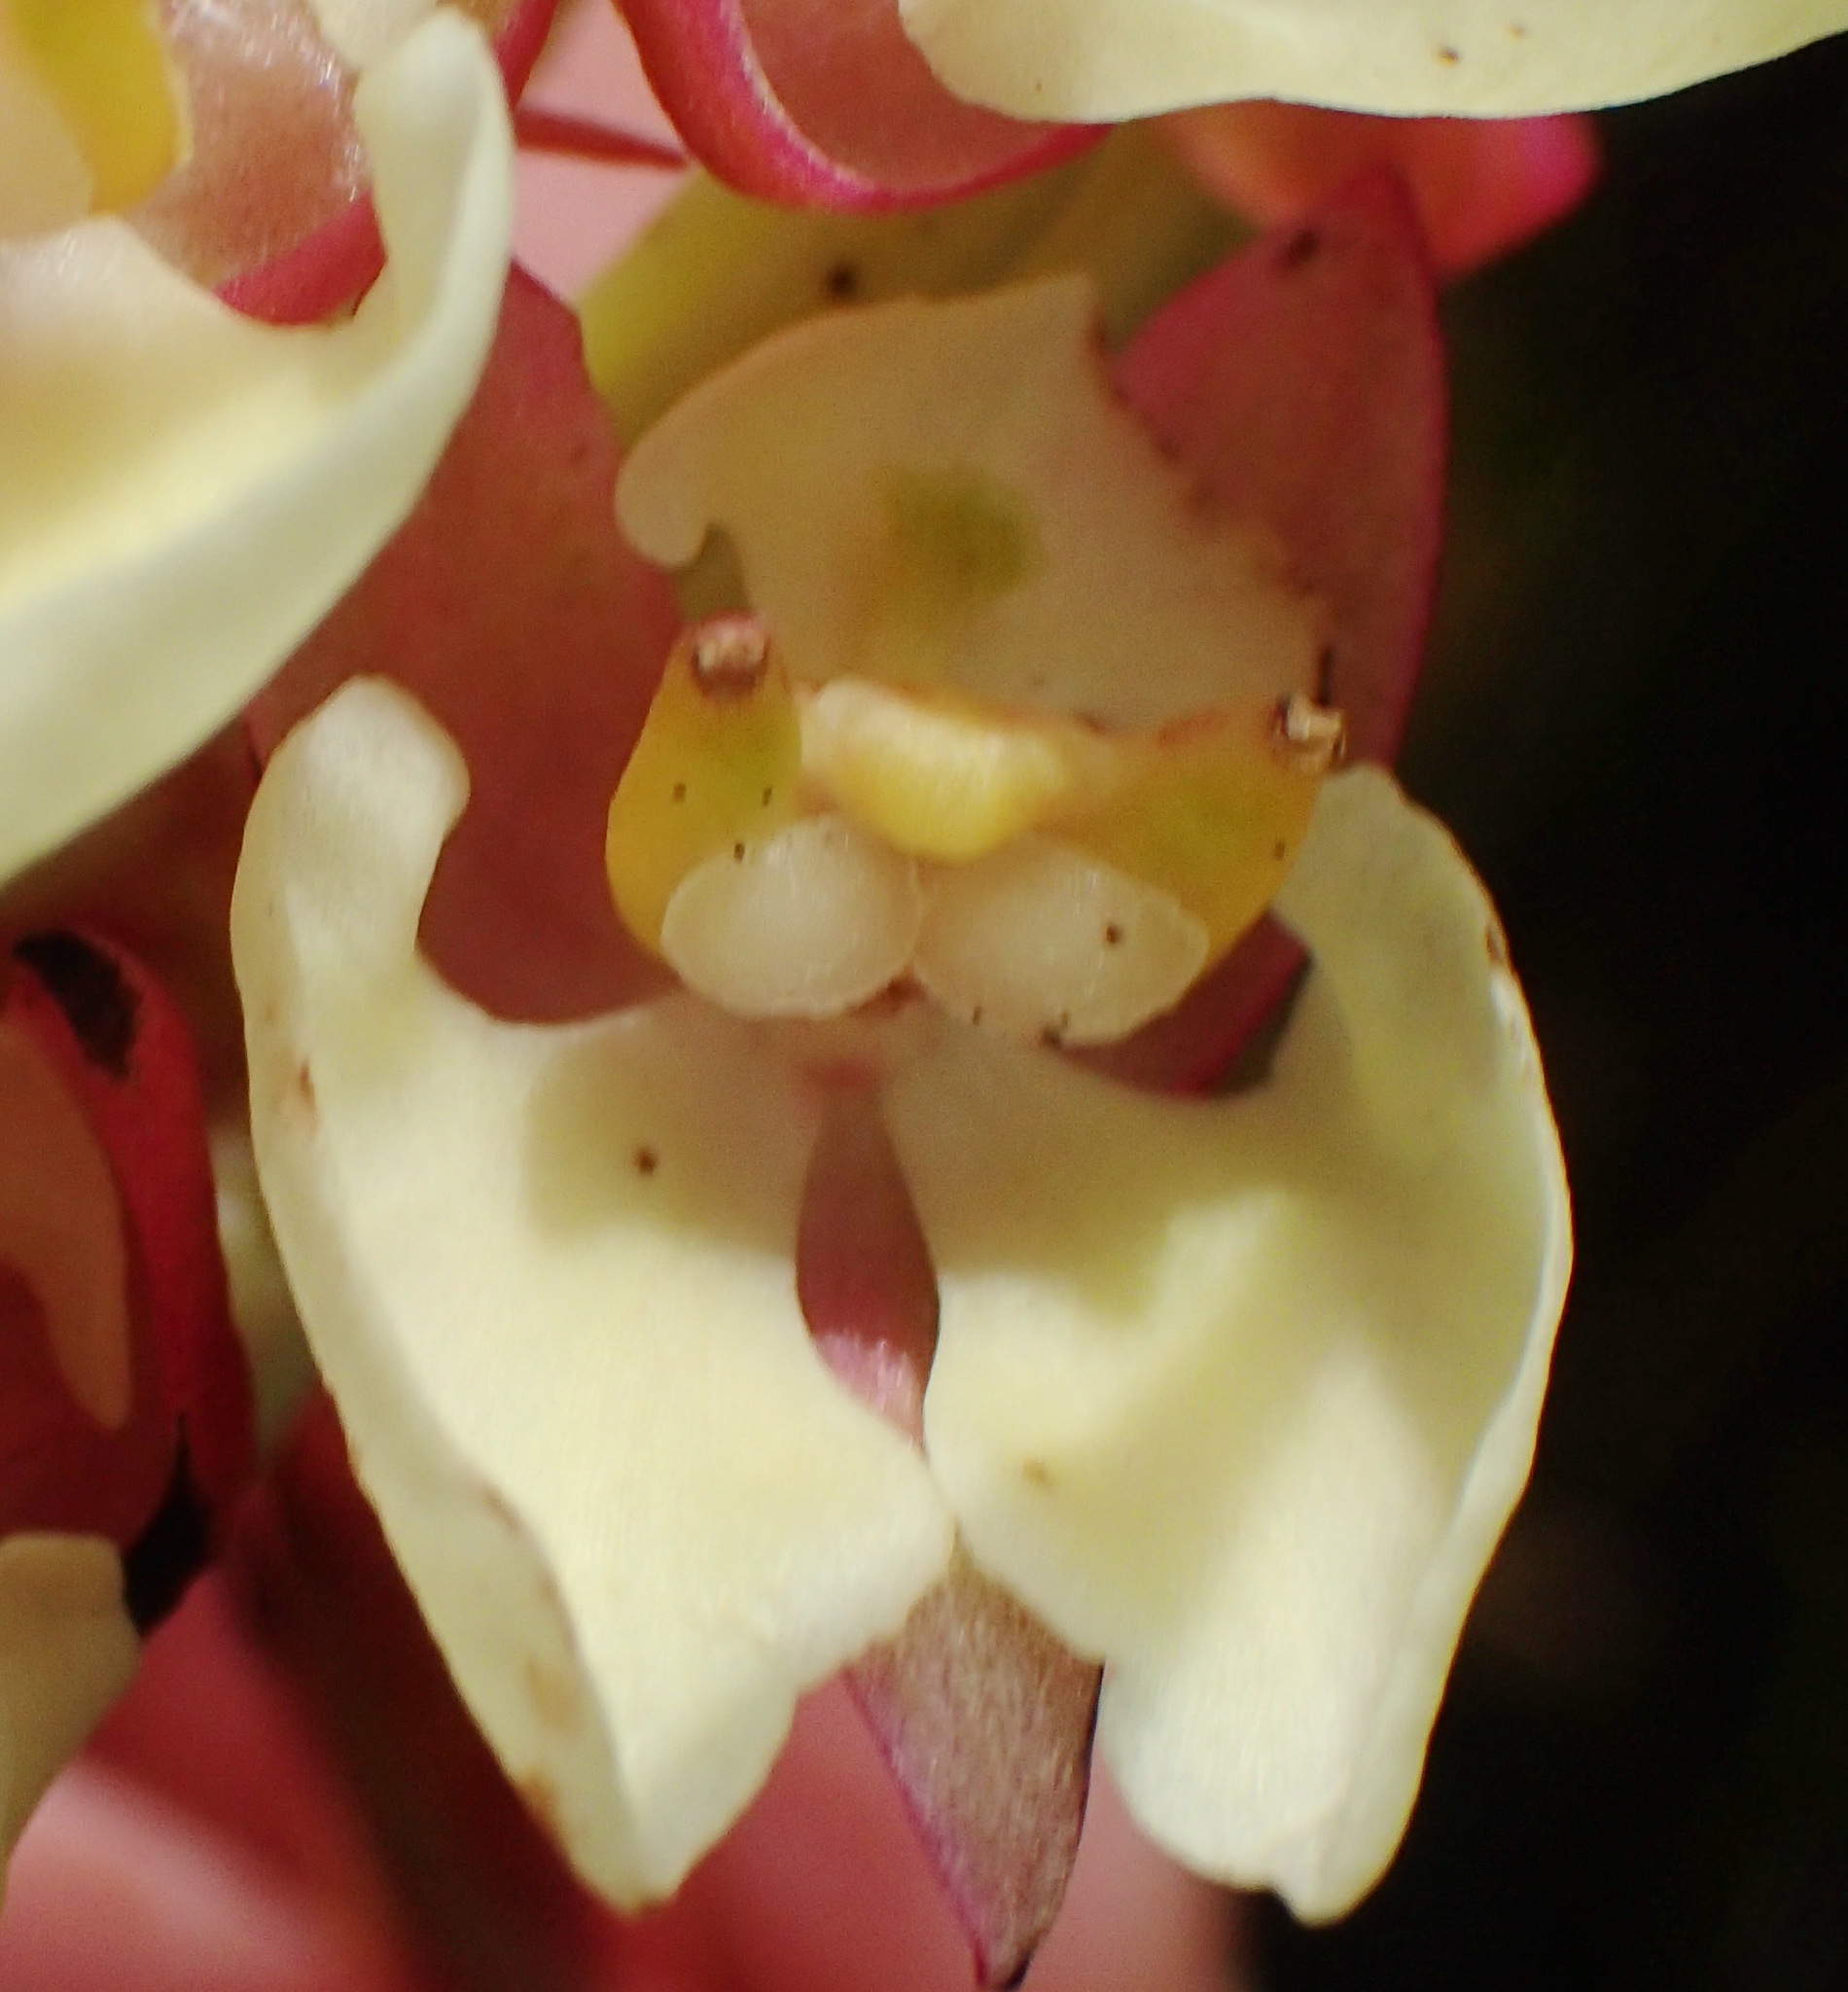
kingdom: Plantae
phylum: Tracheophyta
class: Liliopsida
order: Asparagales
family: Orchidaceae
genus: Ceratandra
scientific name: Ceratandra
